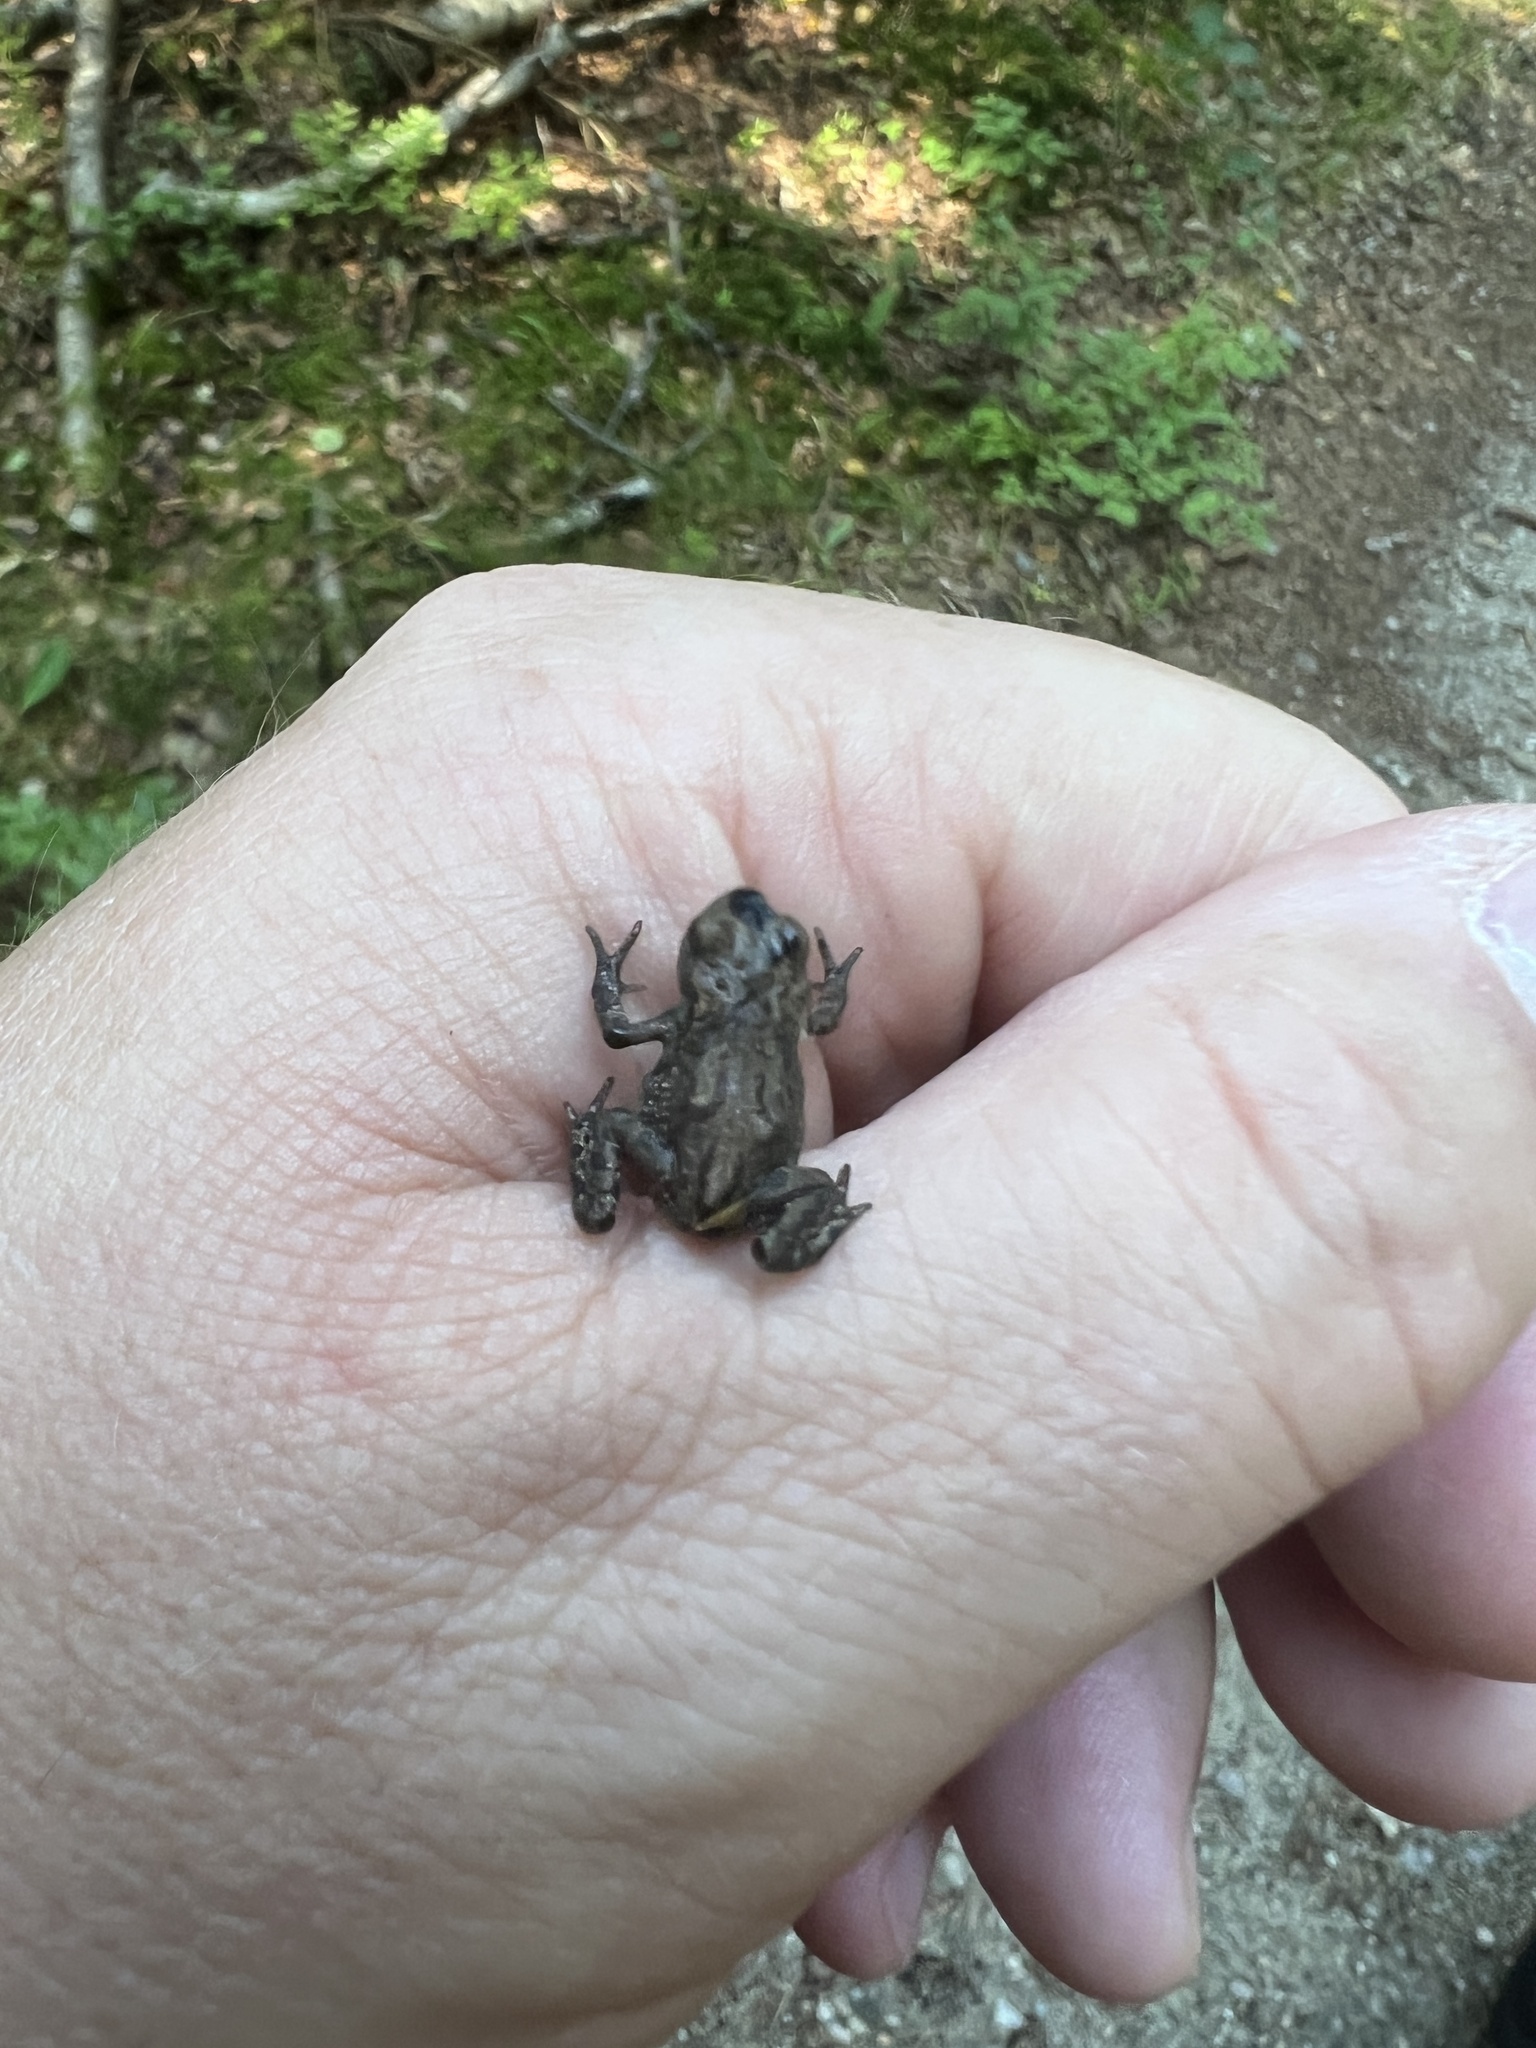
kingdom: Animalia
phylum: Chordata
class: Amphibia
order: Anura
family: Bufonidae
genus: Bufo
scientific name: Bufo bufo
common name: Common toad
